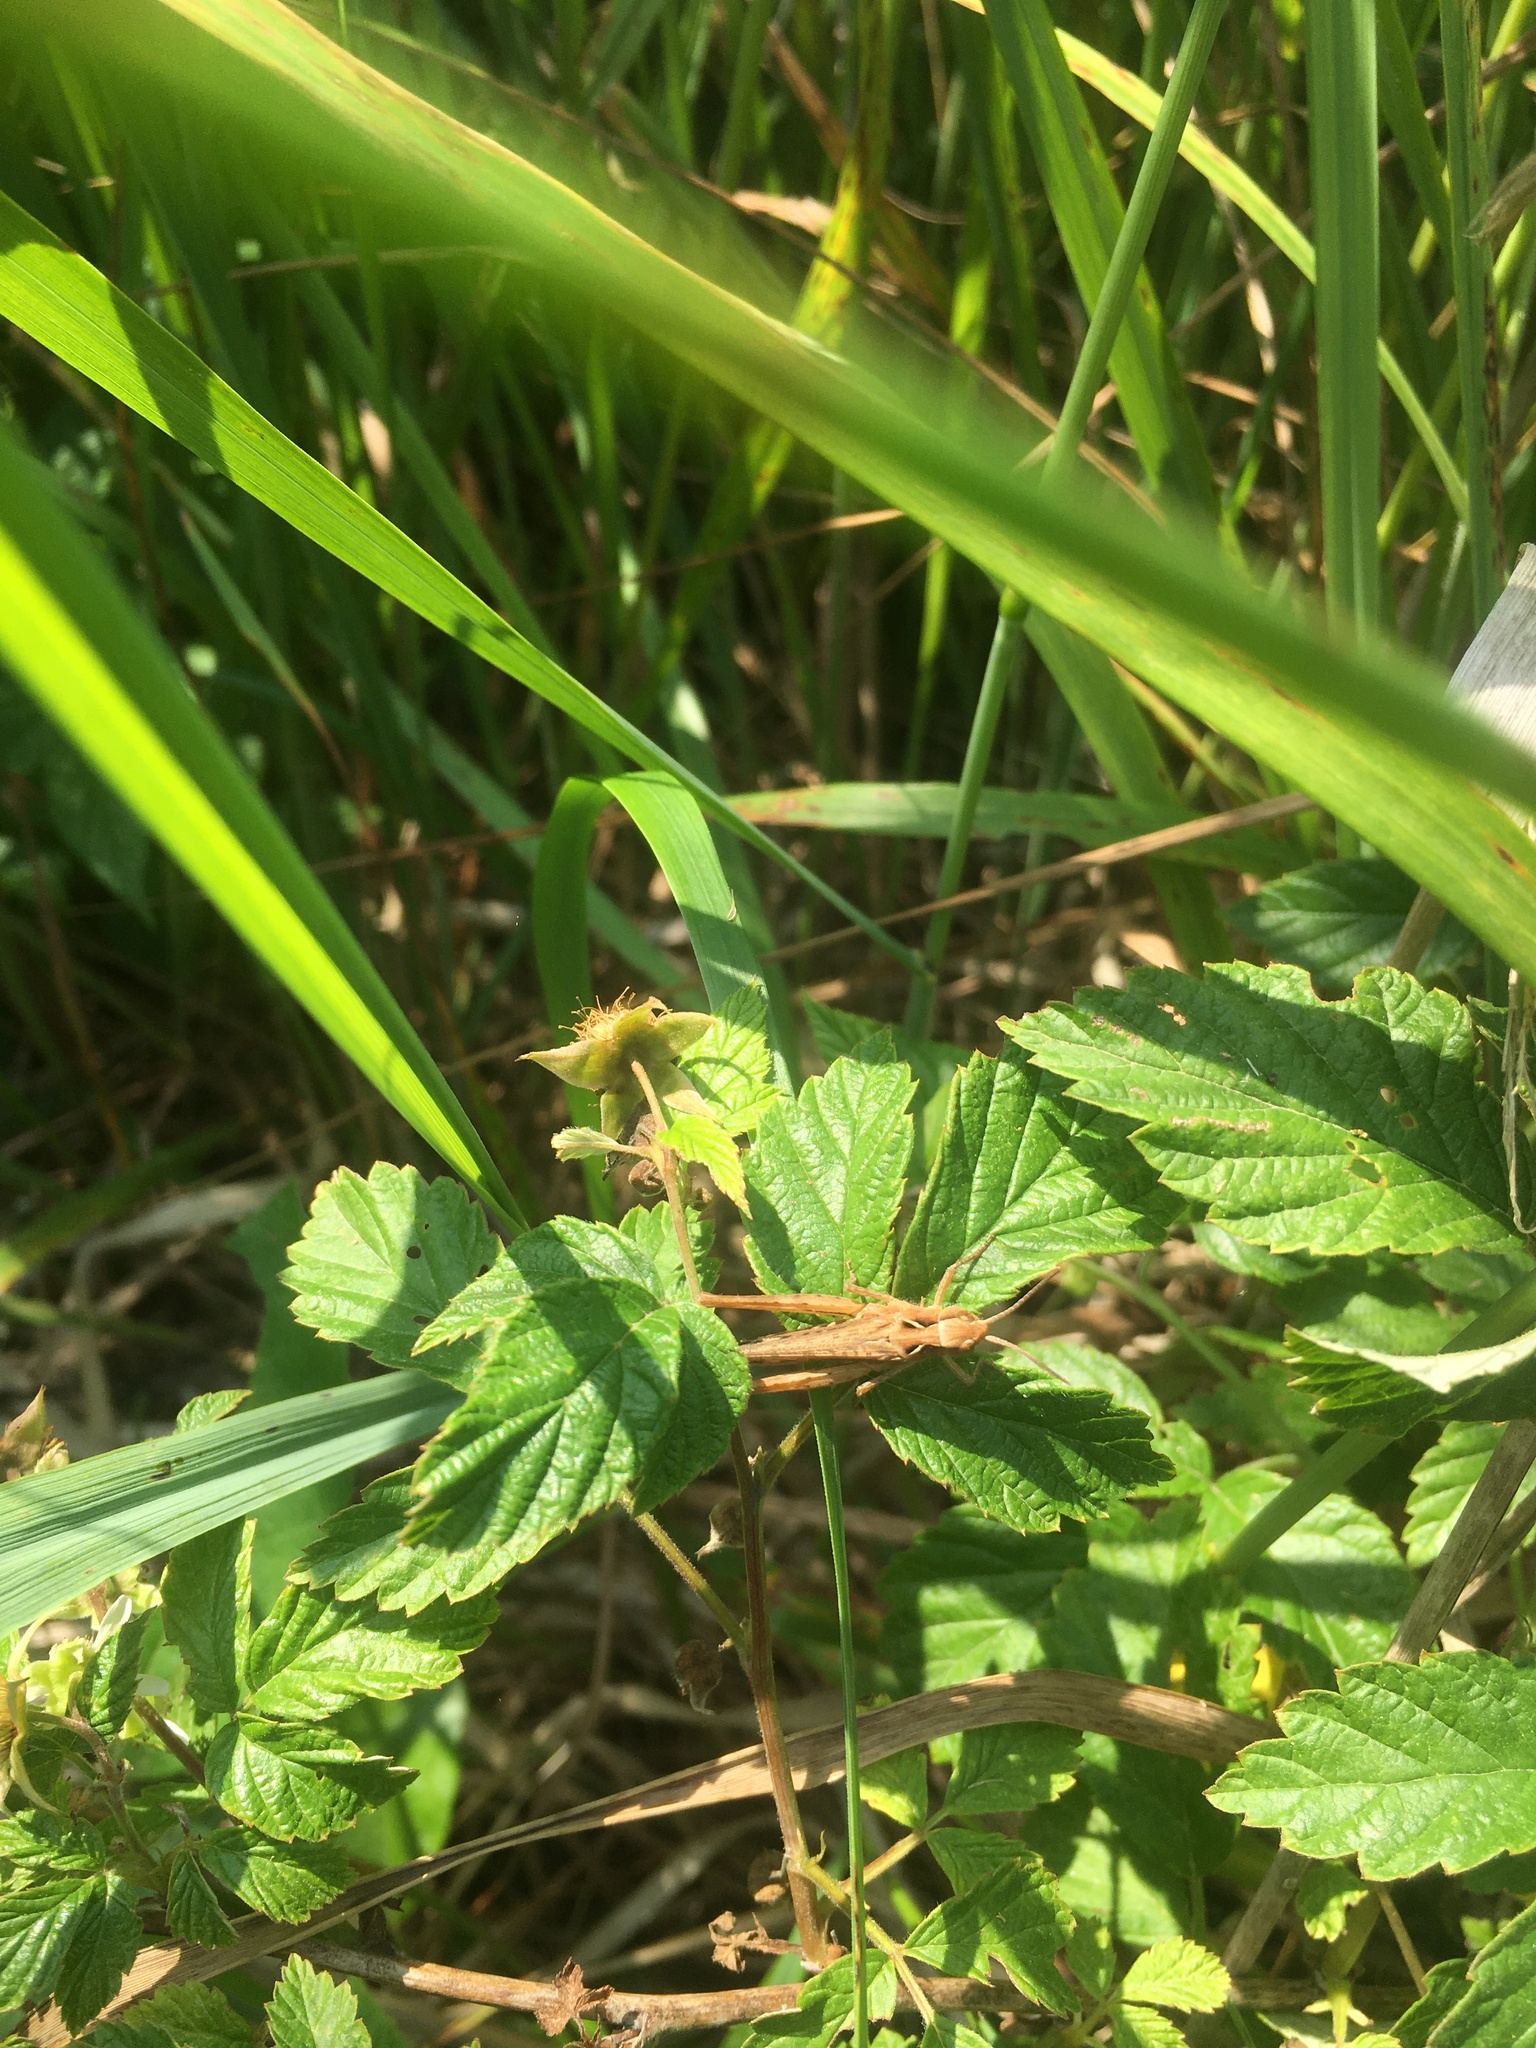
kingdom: Animalia
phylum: Arthropoda
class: Insecta
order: Orthoptera
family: Acrididae
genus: Chorthippus
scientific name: Chorthippus brunneus
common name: Field grasshopper
